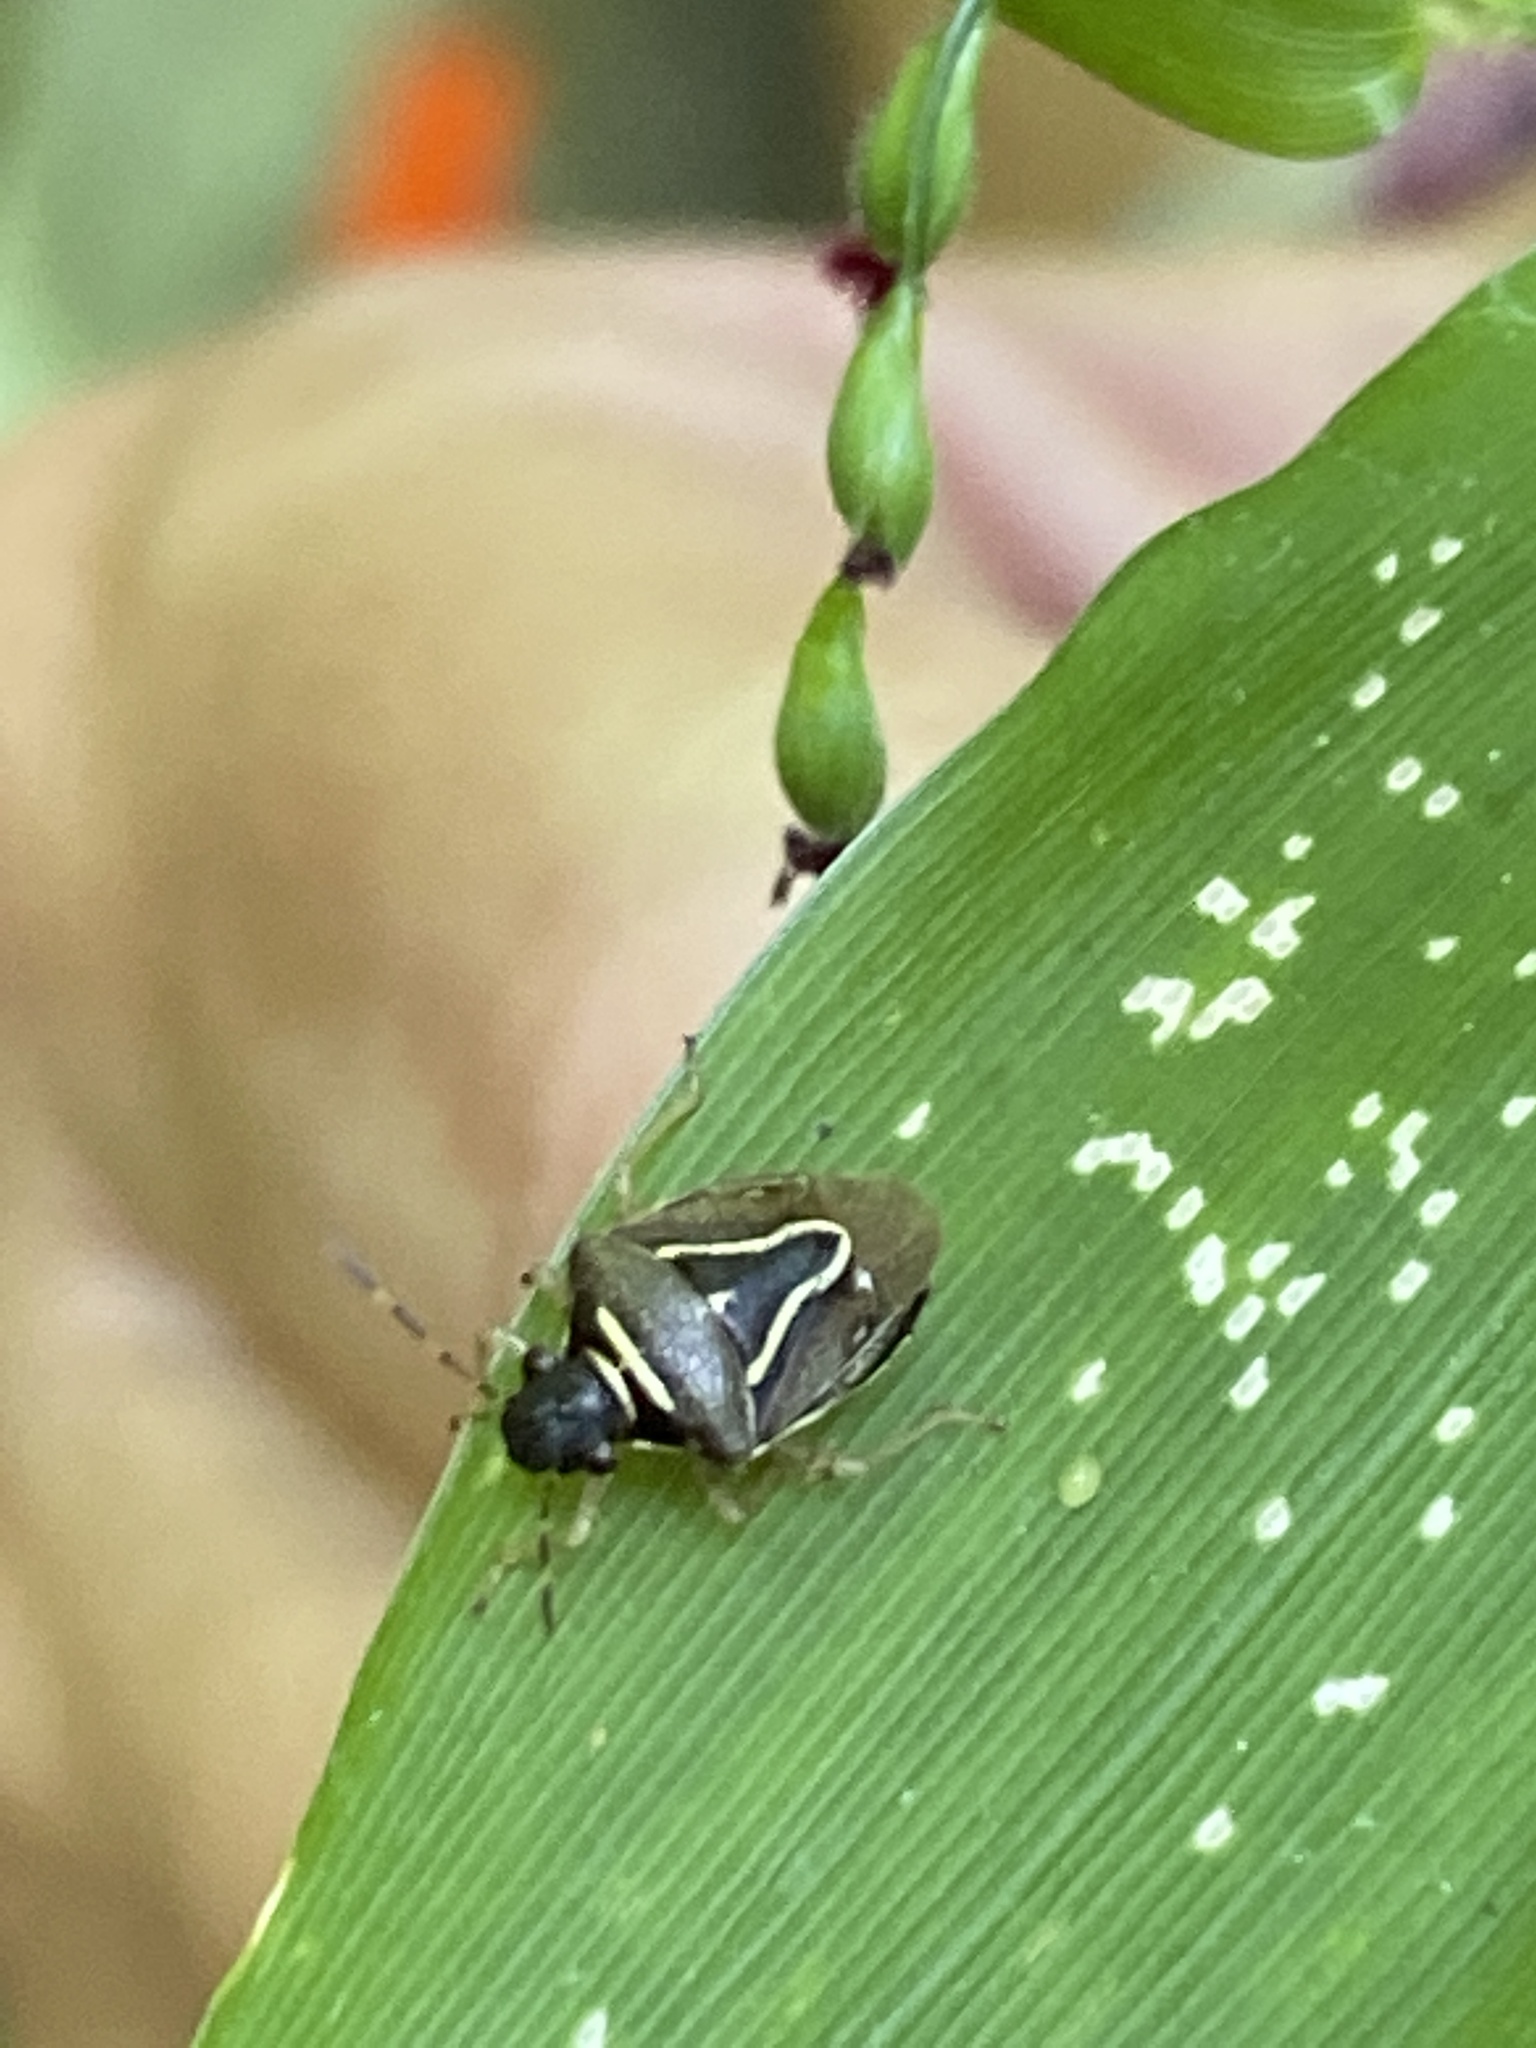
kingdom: Animalia
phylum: Arthropoda
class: Insecta
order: Hemiptera
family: Pentatomidae
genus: Mormidea
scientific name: Mormidea lugens
